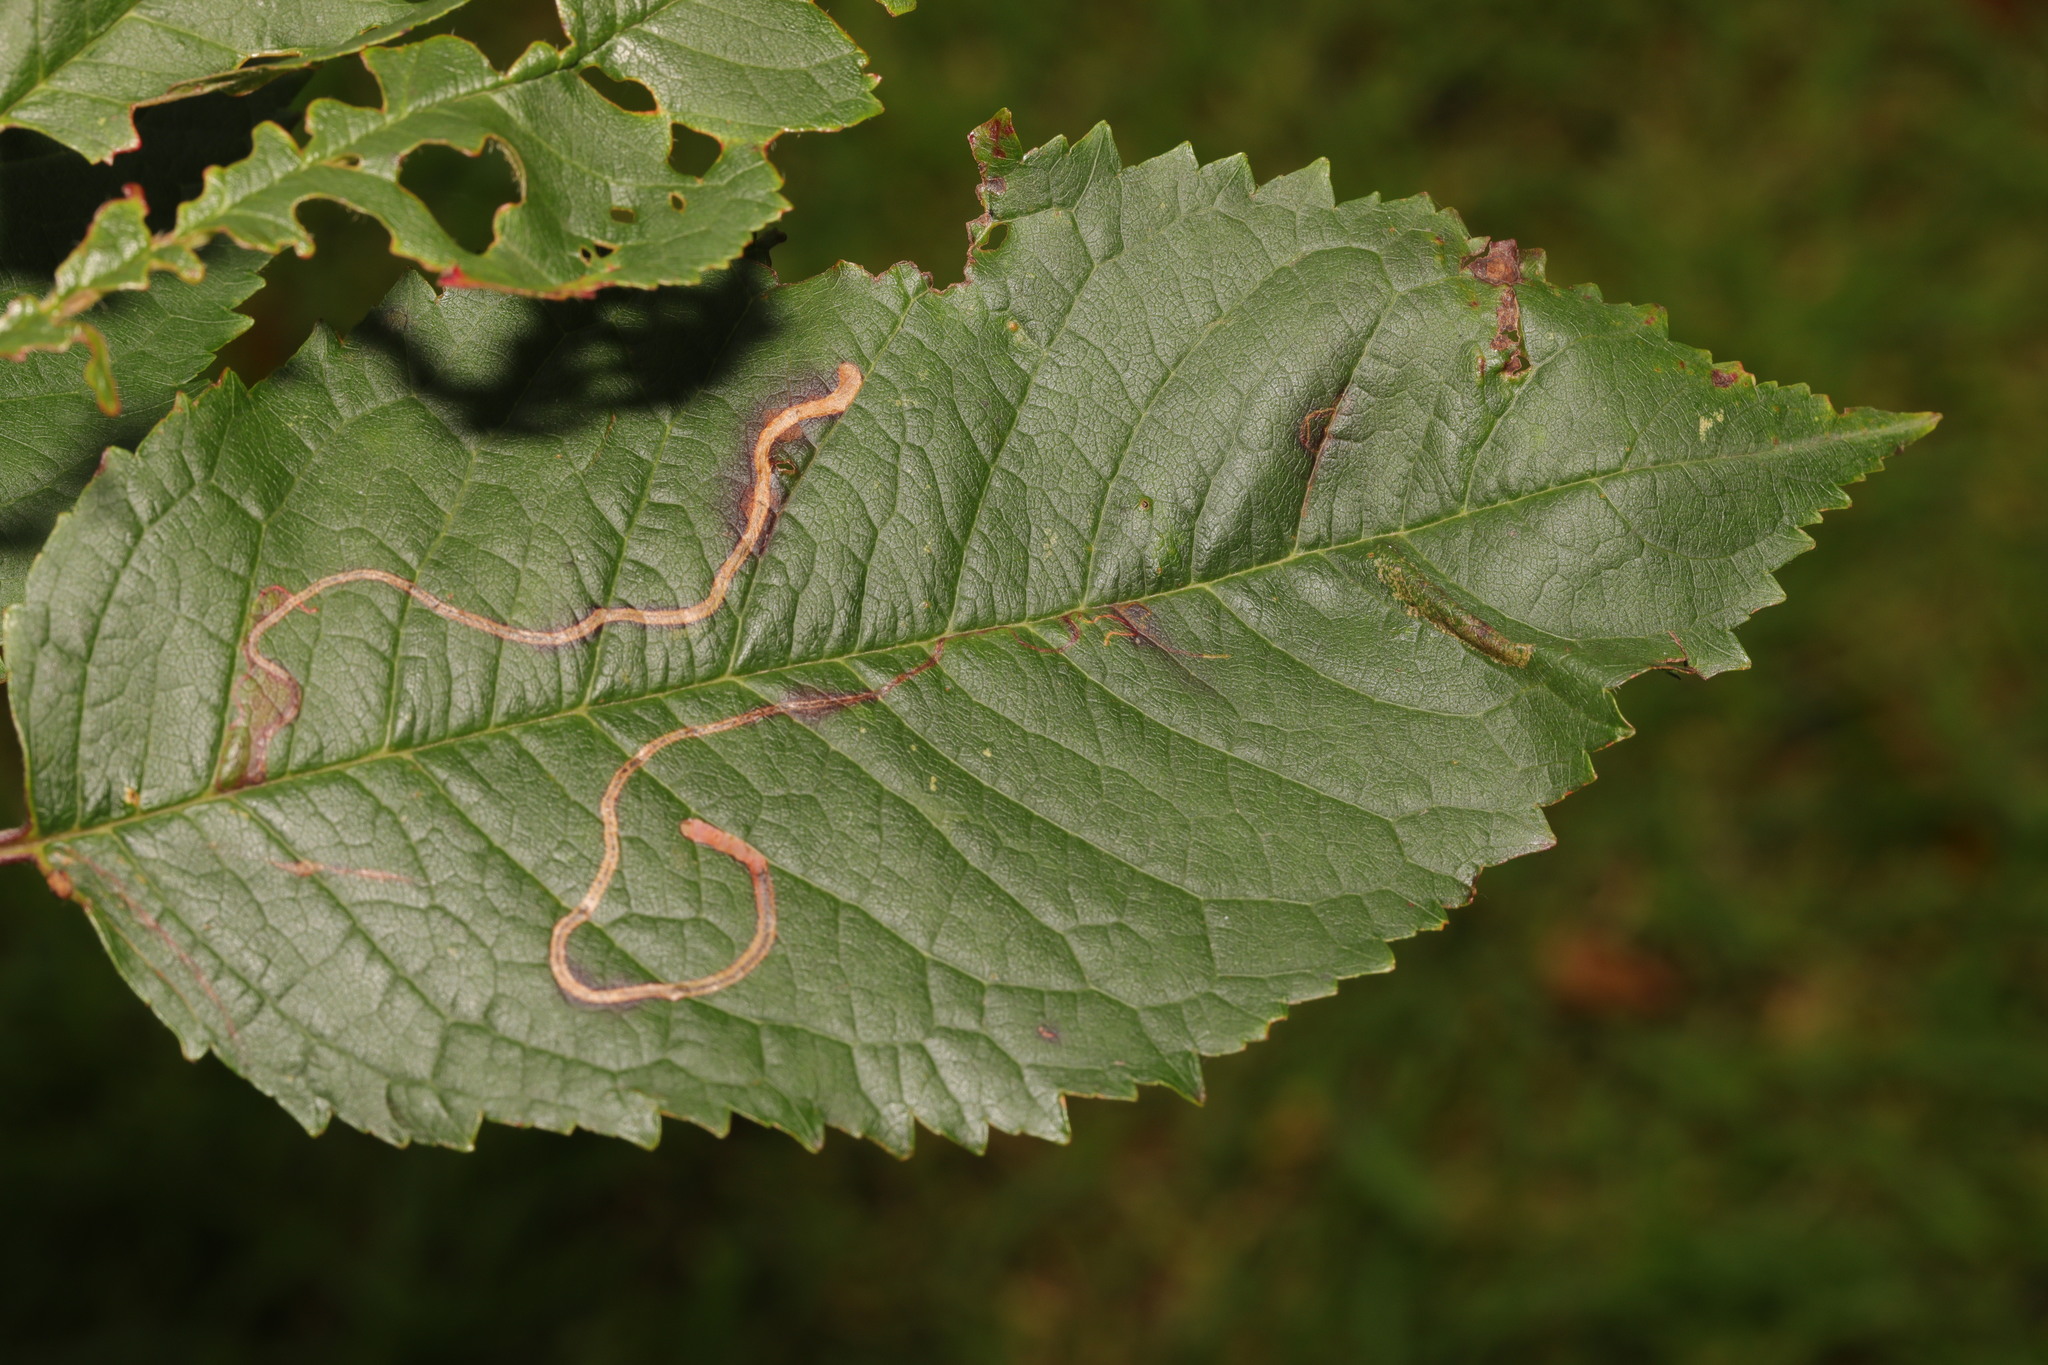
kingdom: Animalia
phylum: Arthropoda
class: Insecta
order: Lepidoptera
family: Lyonetiidae
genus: Lyonetia
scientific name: Lyonetia clerkella
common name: Apple leaf miner
